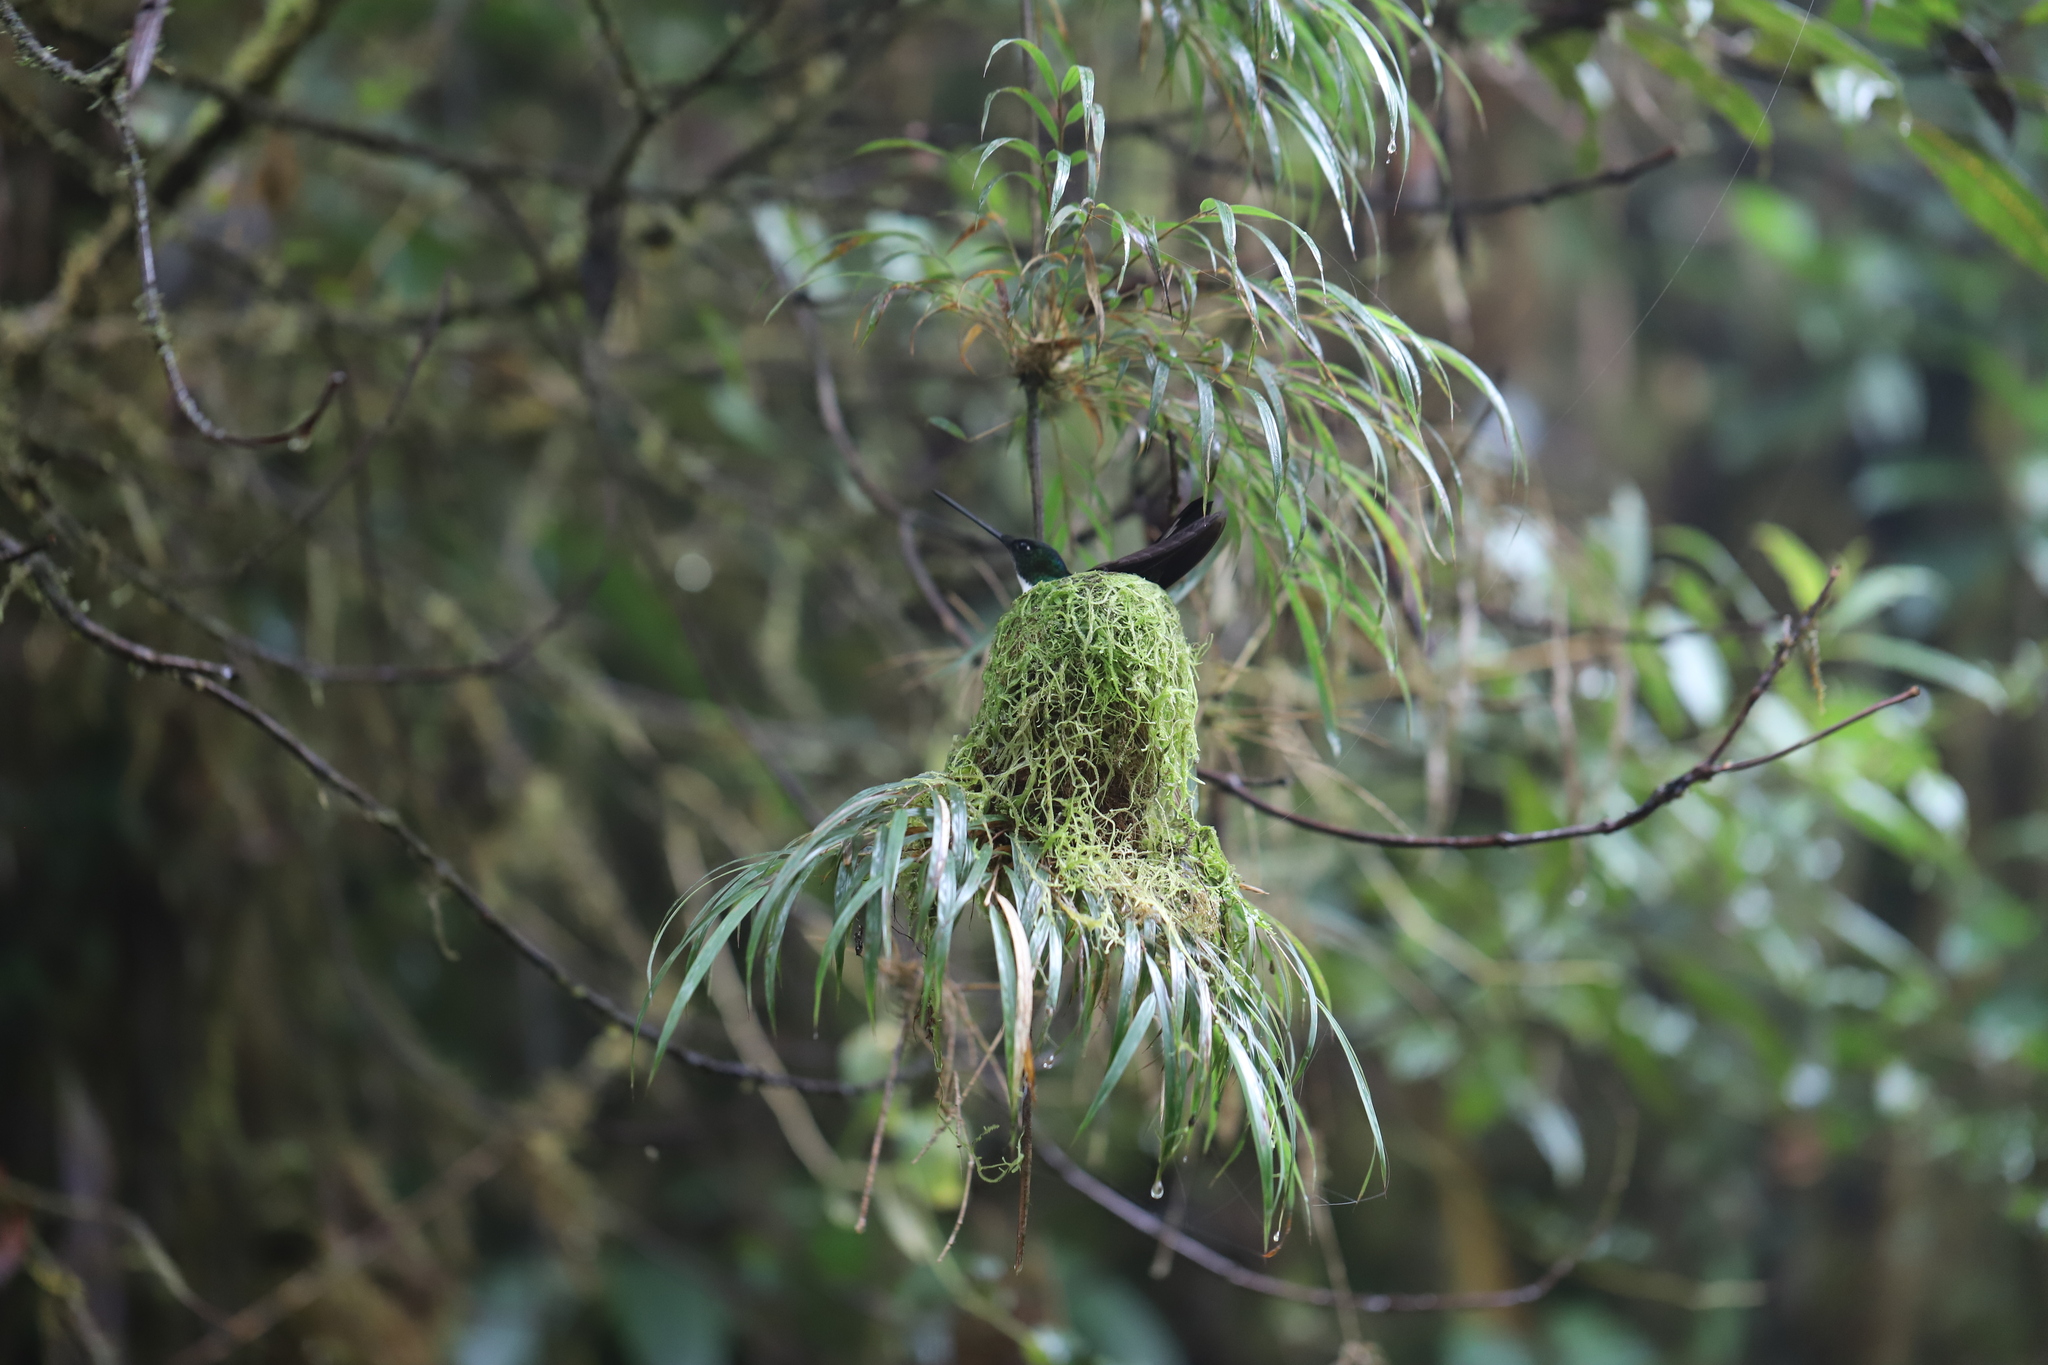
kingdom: Animalia
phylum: Chordata
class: Aves
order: Apodiformes
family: Trochilidae
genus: Coeligena
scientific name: Coeligena torquata
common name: Collared inca
